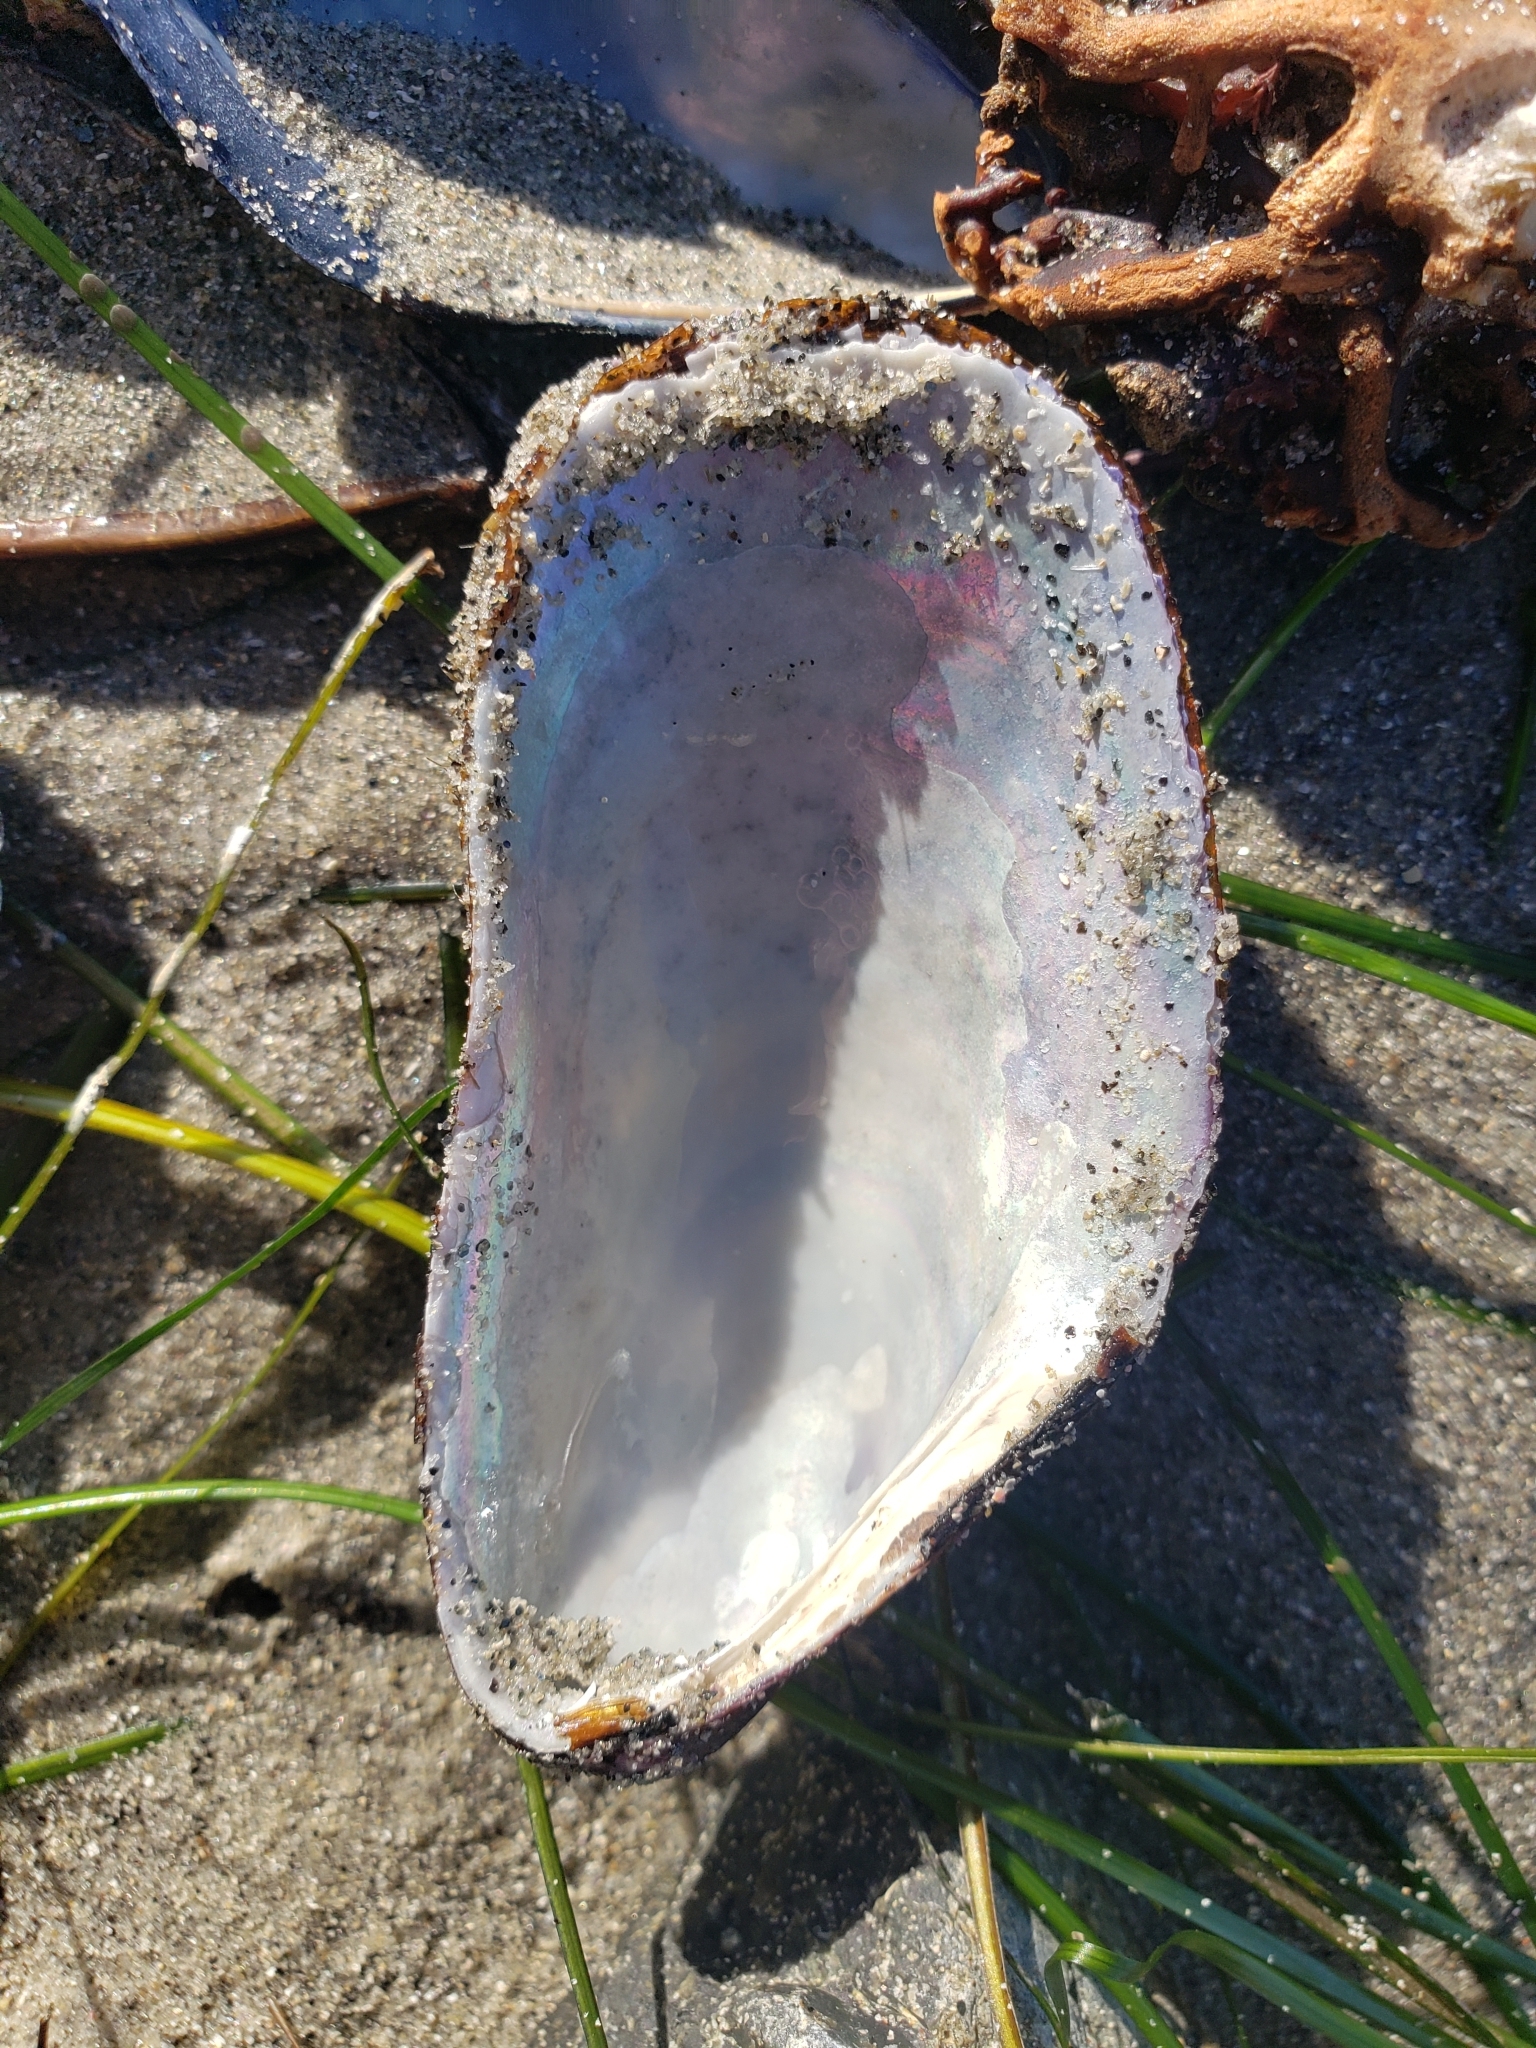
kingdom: Animalia
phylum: Mollusca
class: Bivalvia
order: Mytilida
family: Mytilidae
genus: Modiolus
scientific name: Modiolus capax
